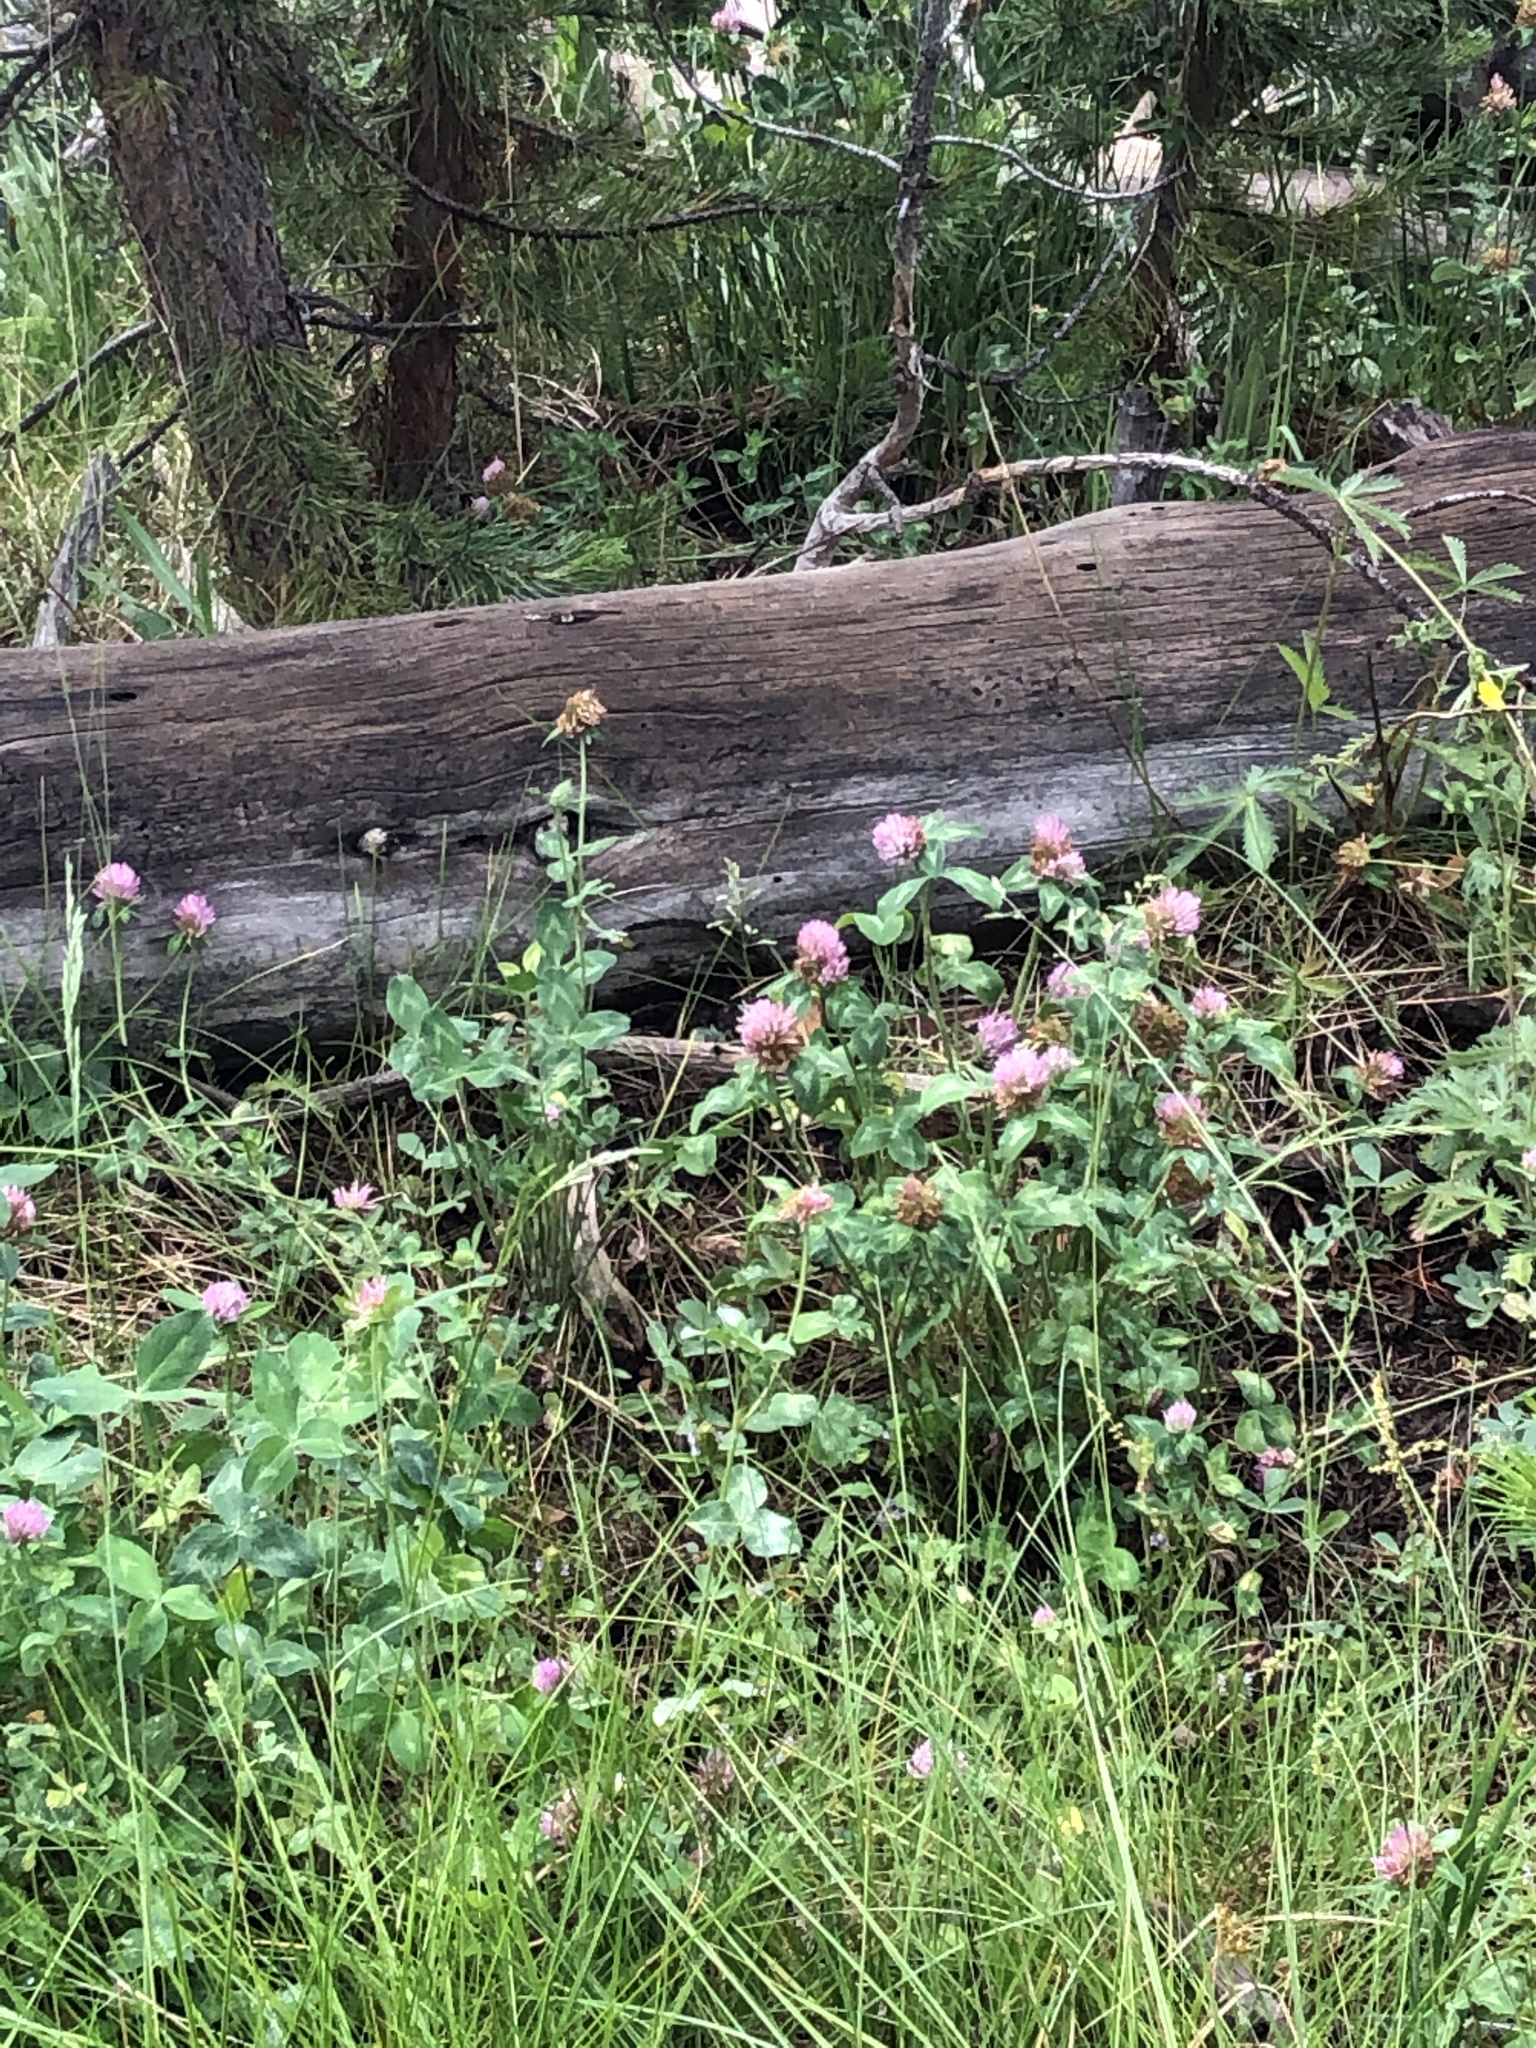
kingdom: Plantae
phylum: Tracheophyta
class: Magnoliopsida
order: Fabales
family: Fabaceae
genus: Trifolium
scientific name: Trifolium pratense
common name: Red clover
